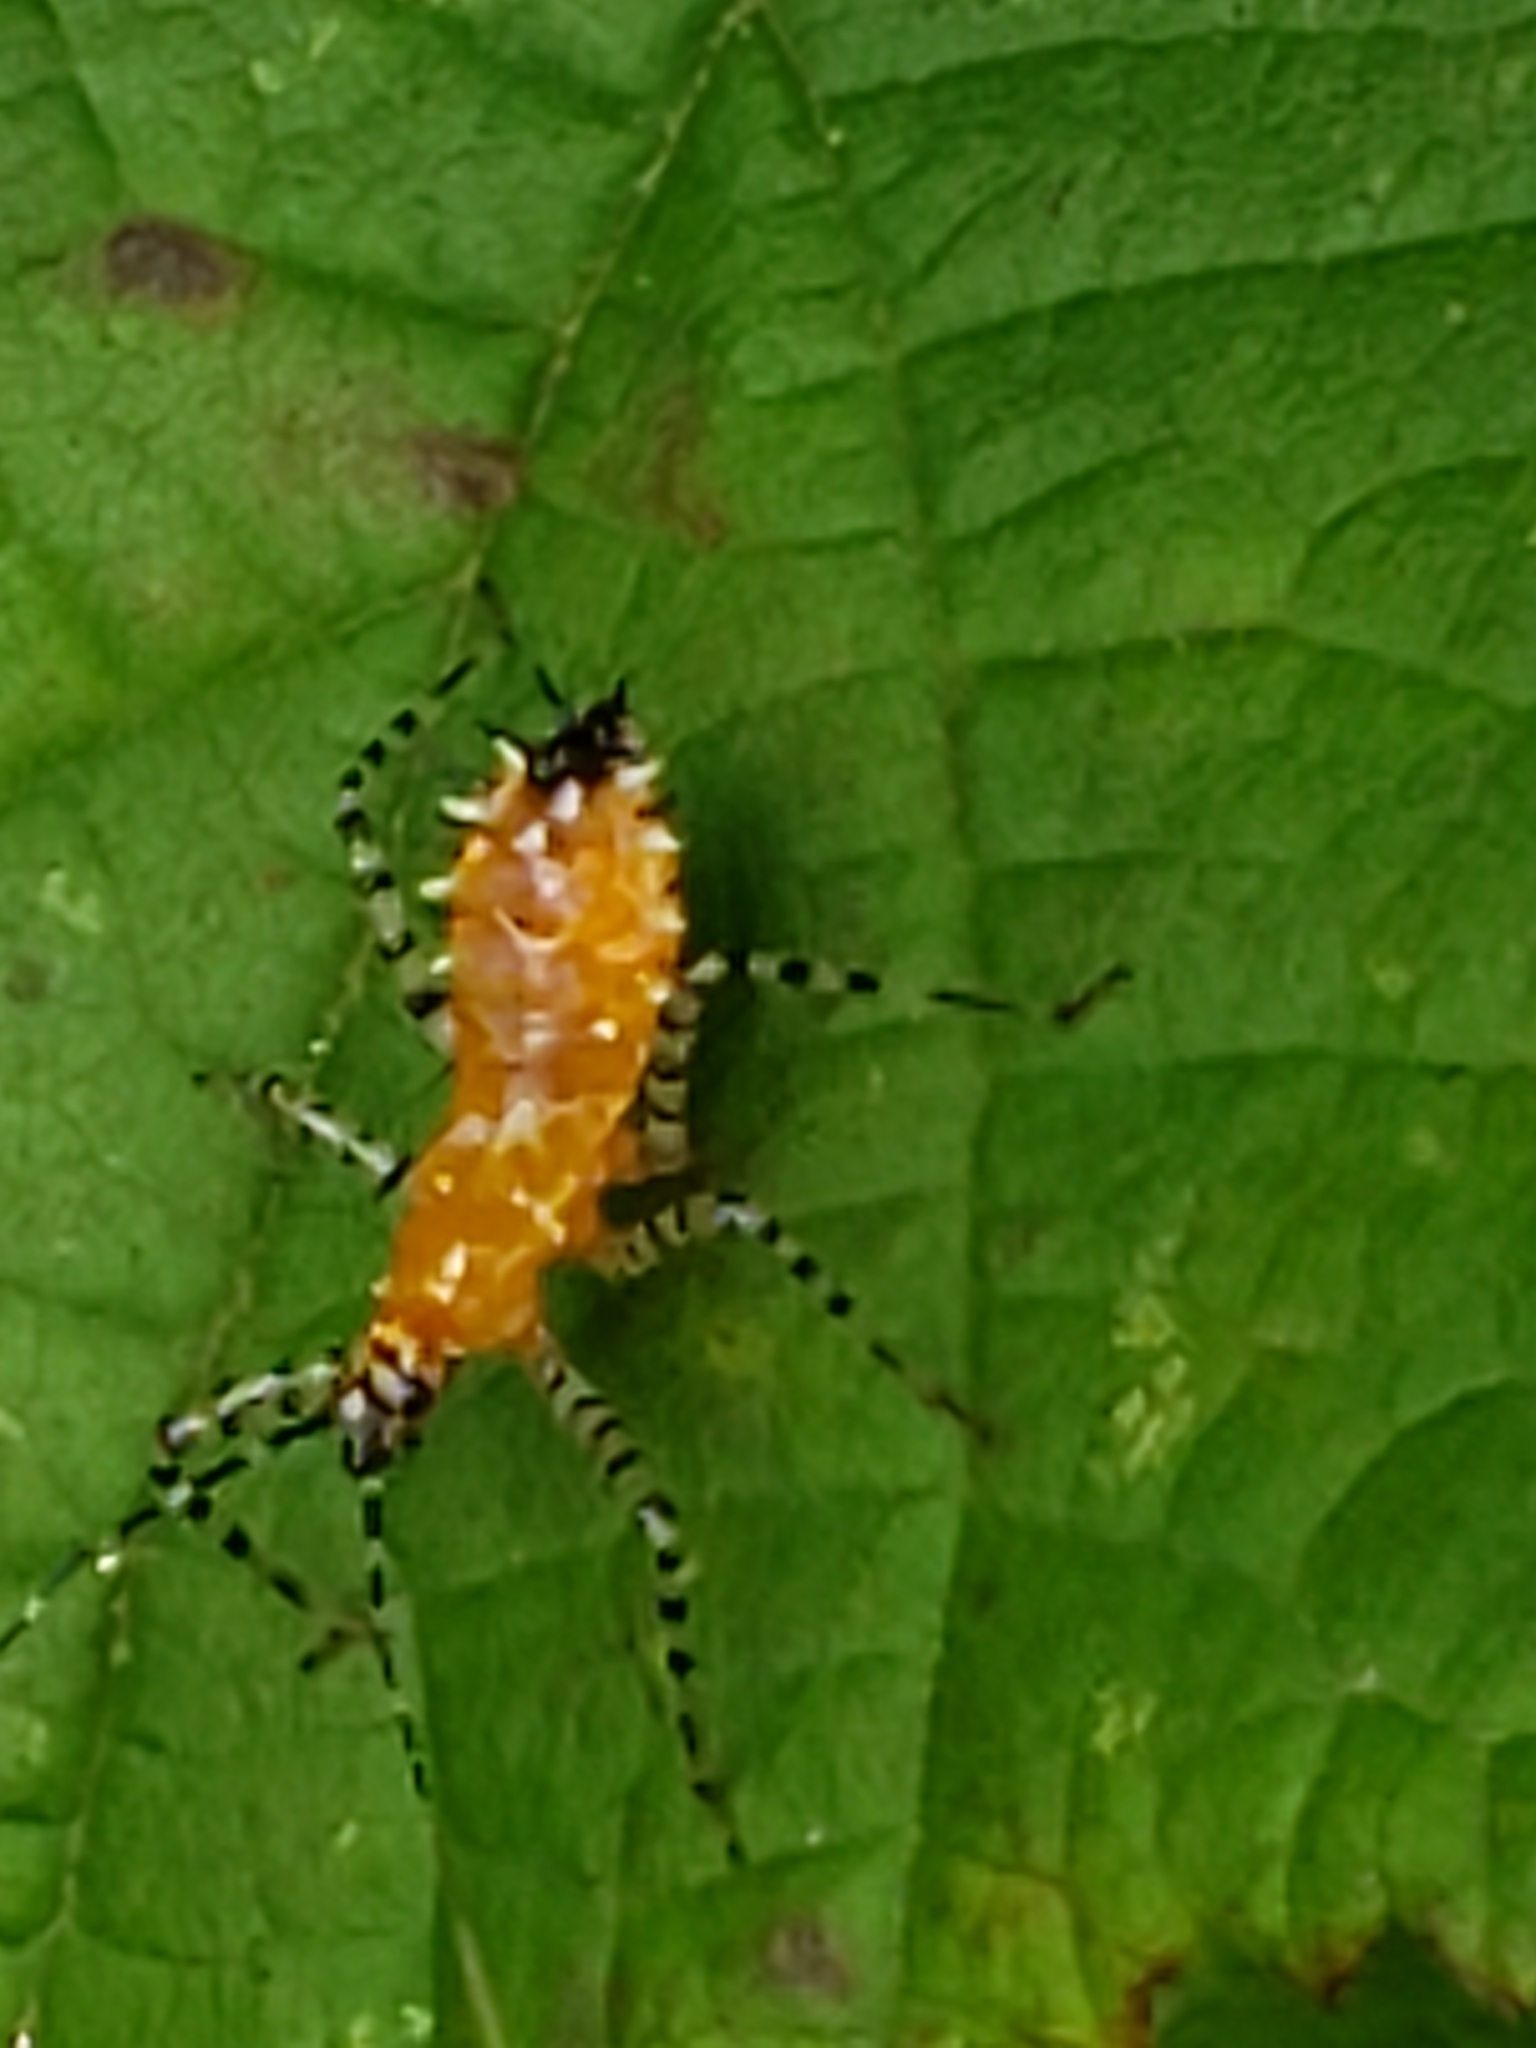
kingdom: Animalia
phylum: Arthropoda
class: Insecta
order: Hemiptera
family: Reduviidae
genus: Pselliopus
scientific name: Pselliopus cinctus
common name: Ringed assassin bug
